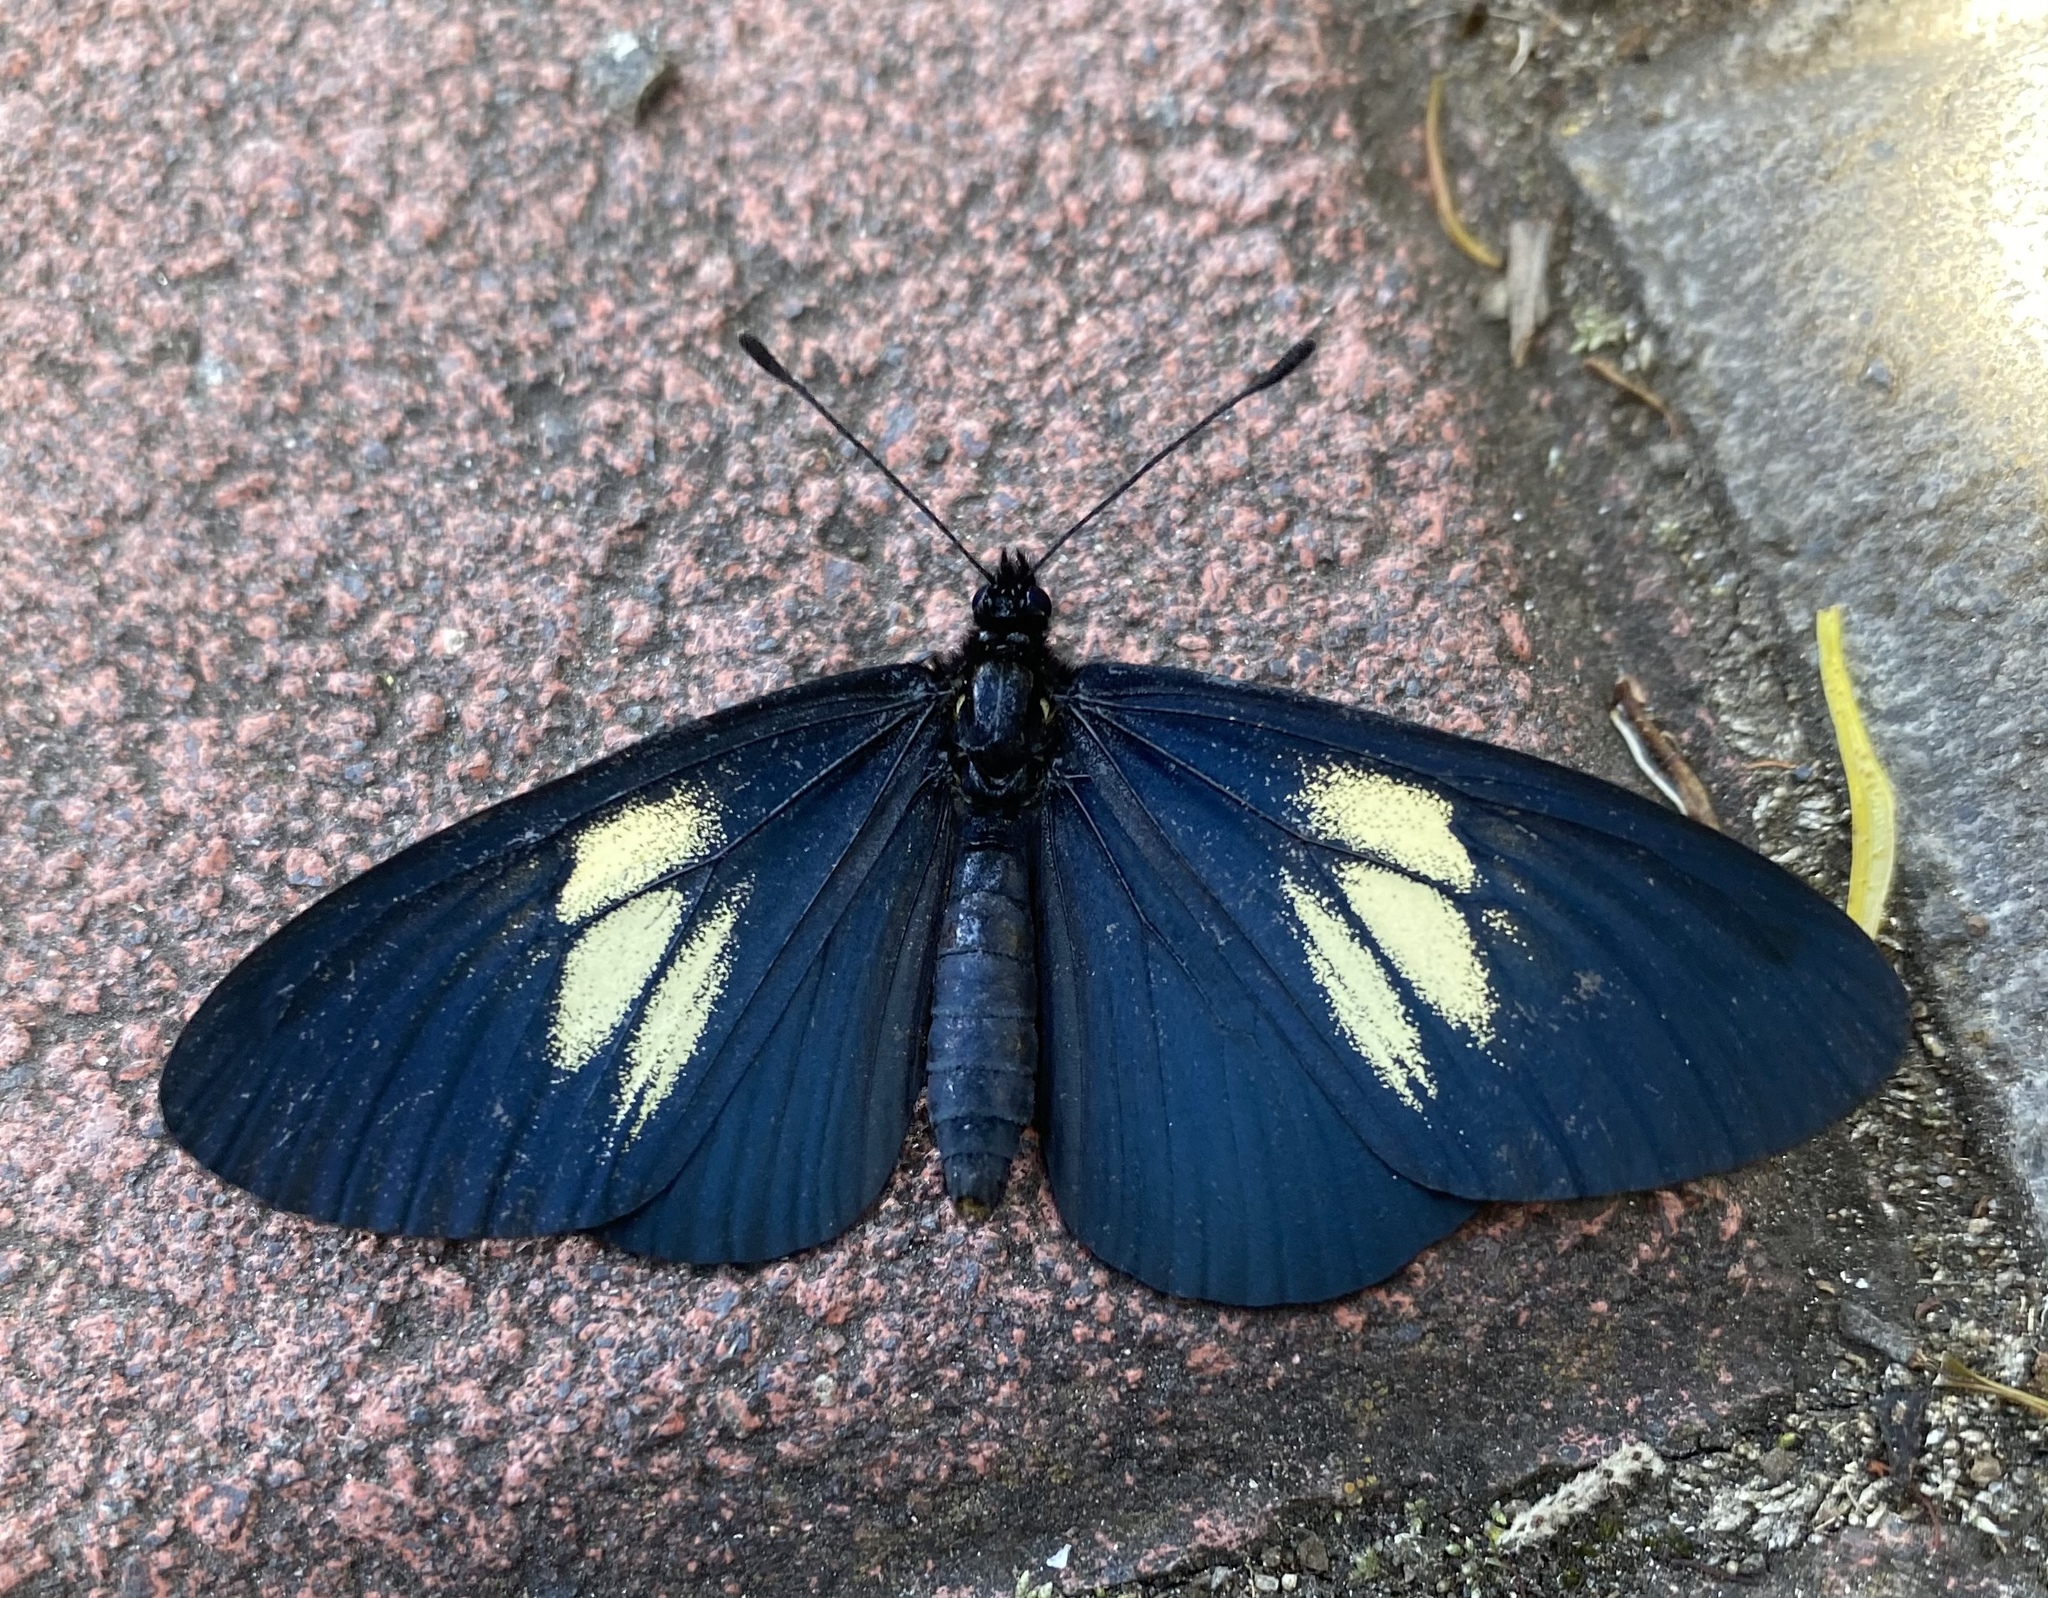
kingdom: Animalia
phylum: Arthropoda
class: Insecta
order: Lepidoptera
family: Nymphalidae
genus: Acraea
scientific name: Acraea Altinote ozomene
